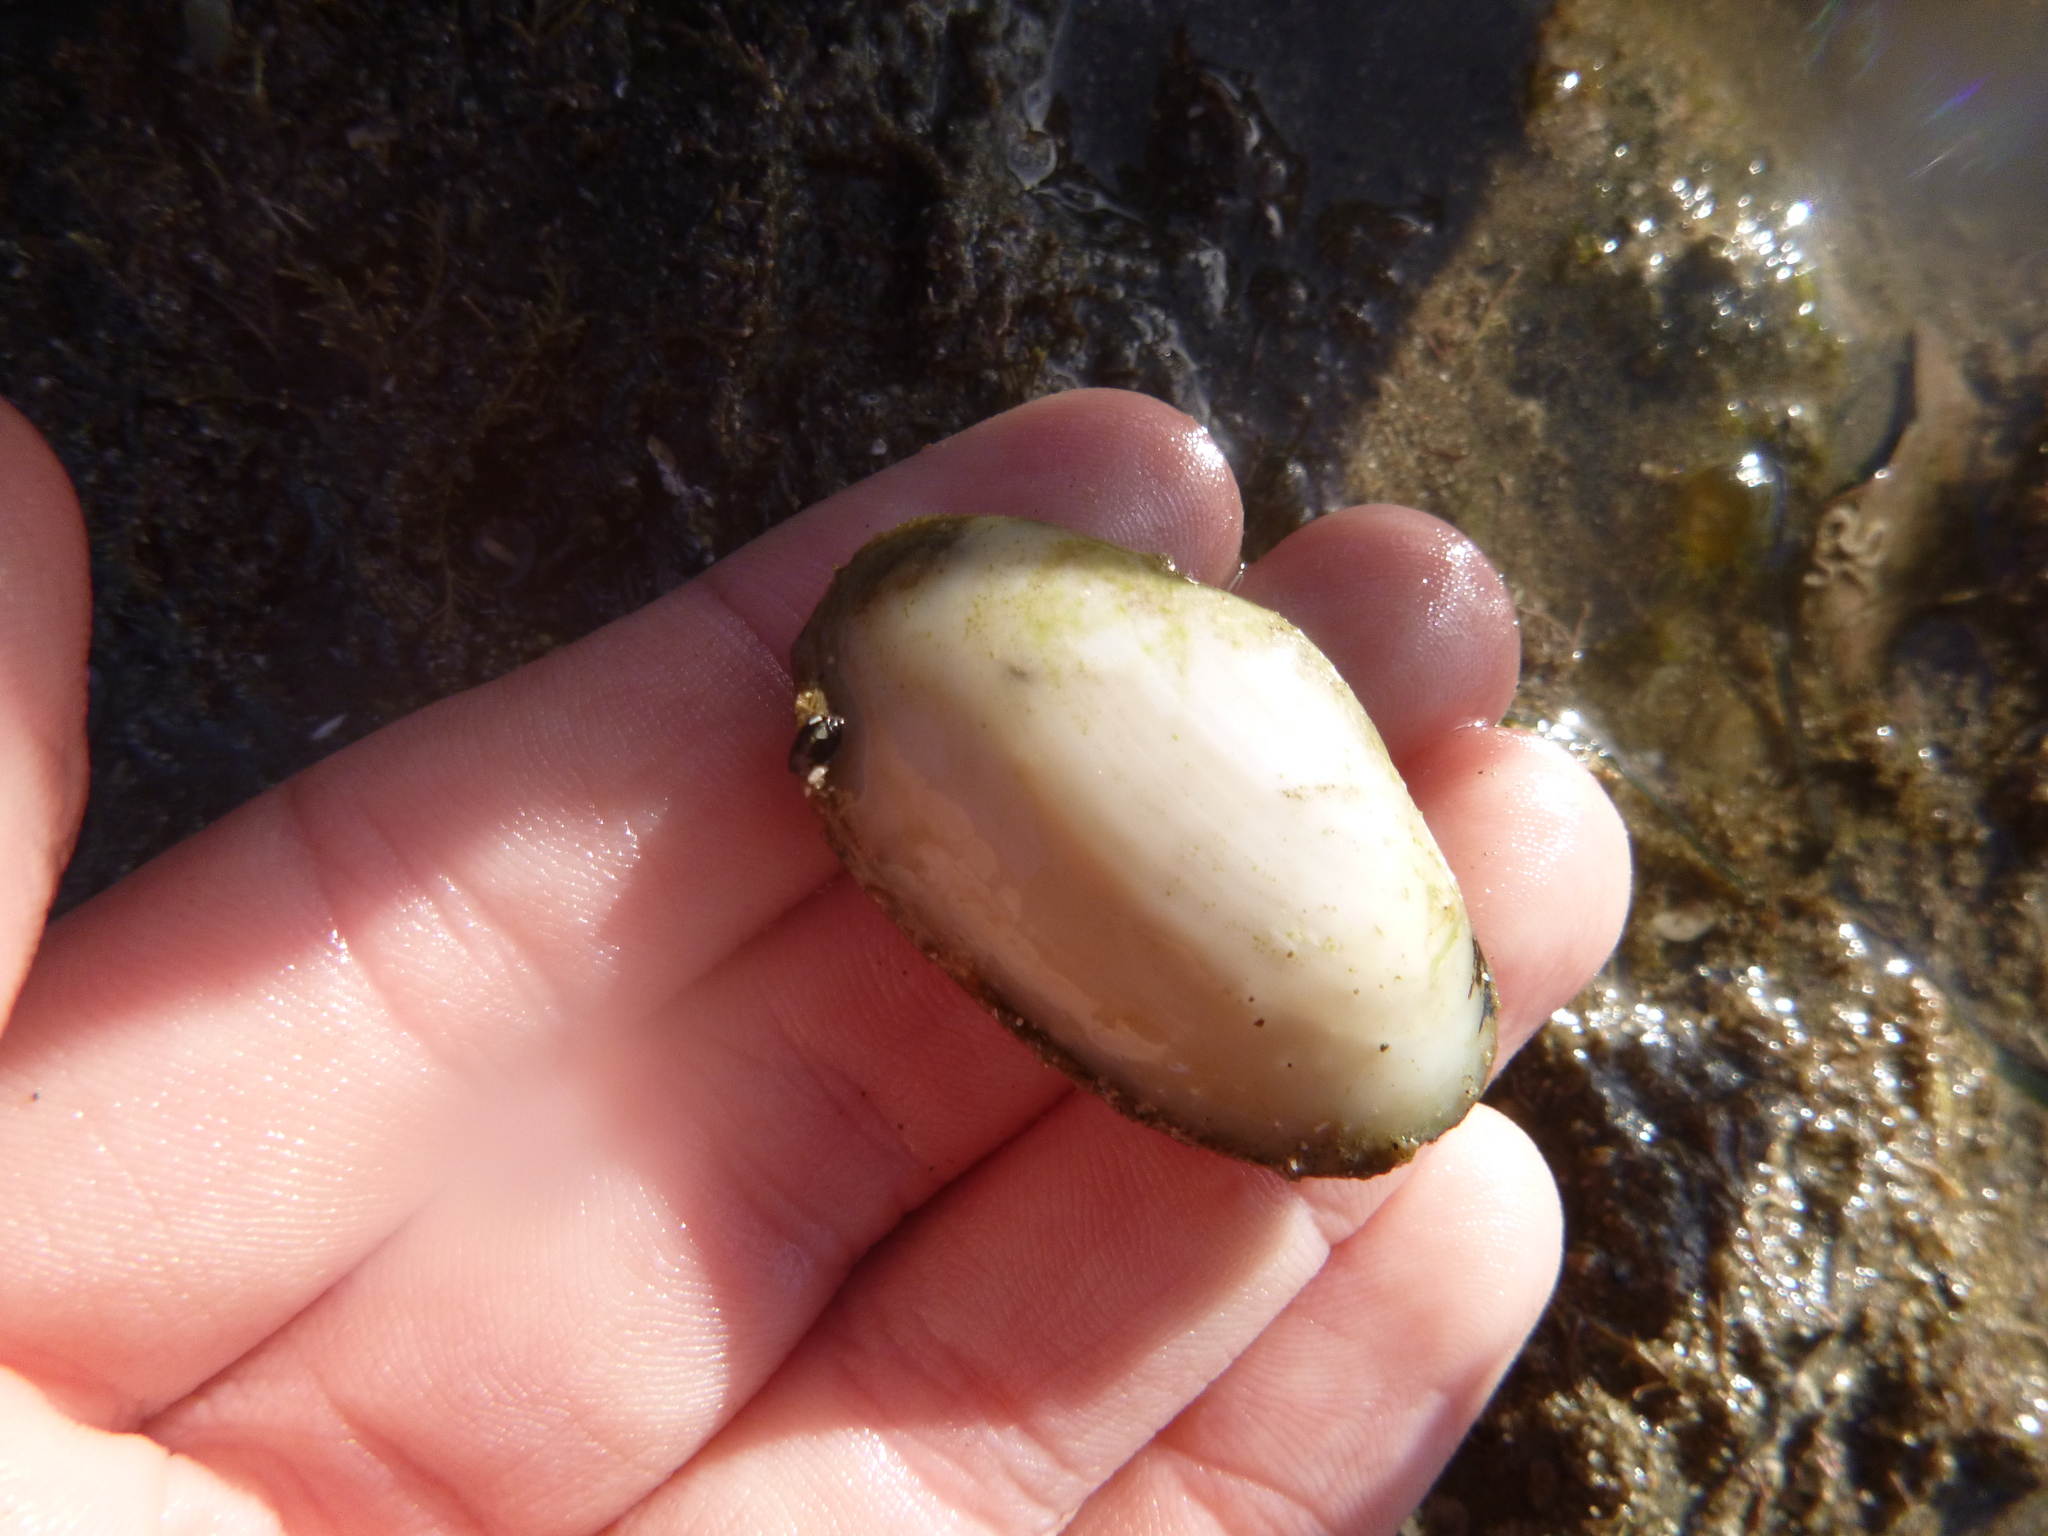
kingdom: Animalia
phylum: Mollusca
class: Bivalvia
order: Venerida
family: Mesodesmatidae
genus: Paphies
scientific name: Paphies australis
